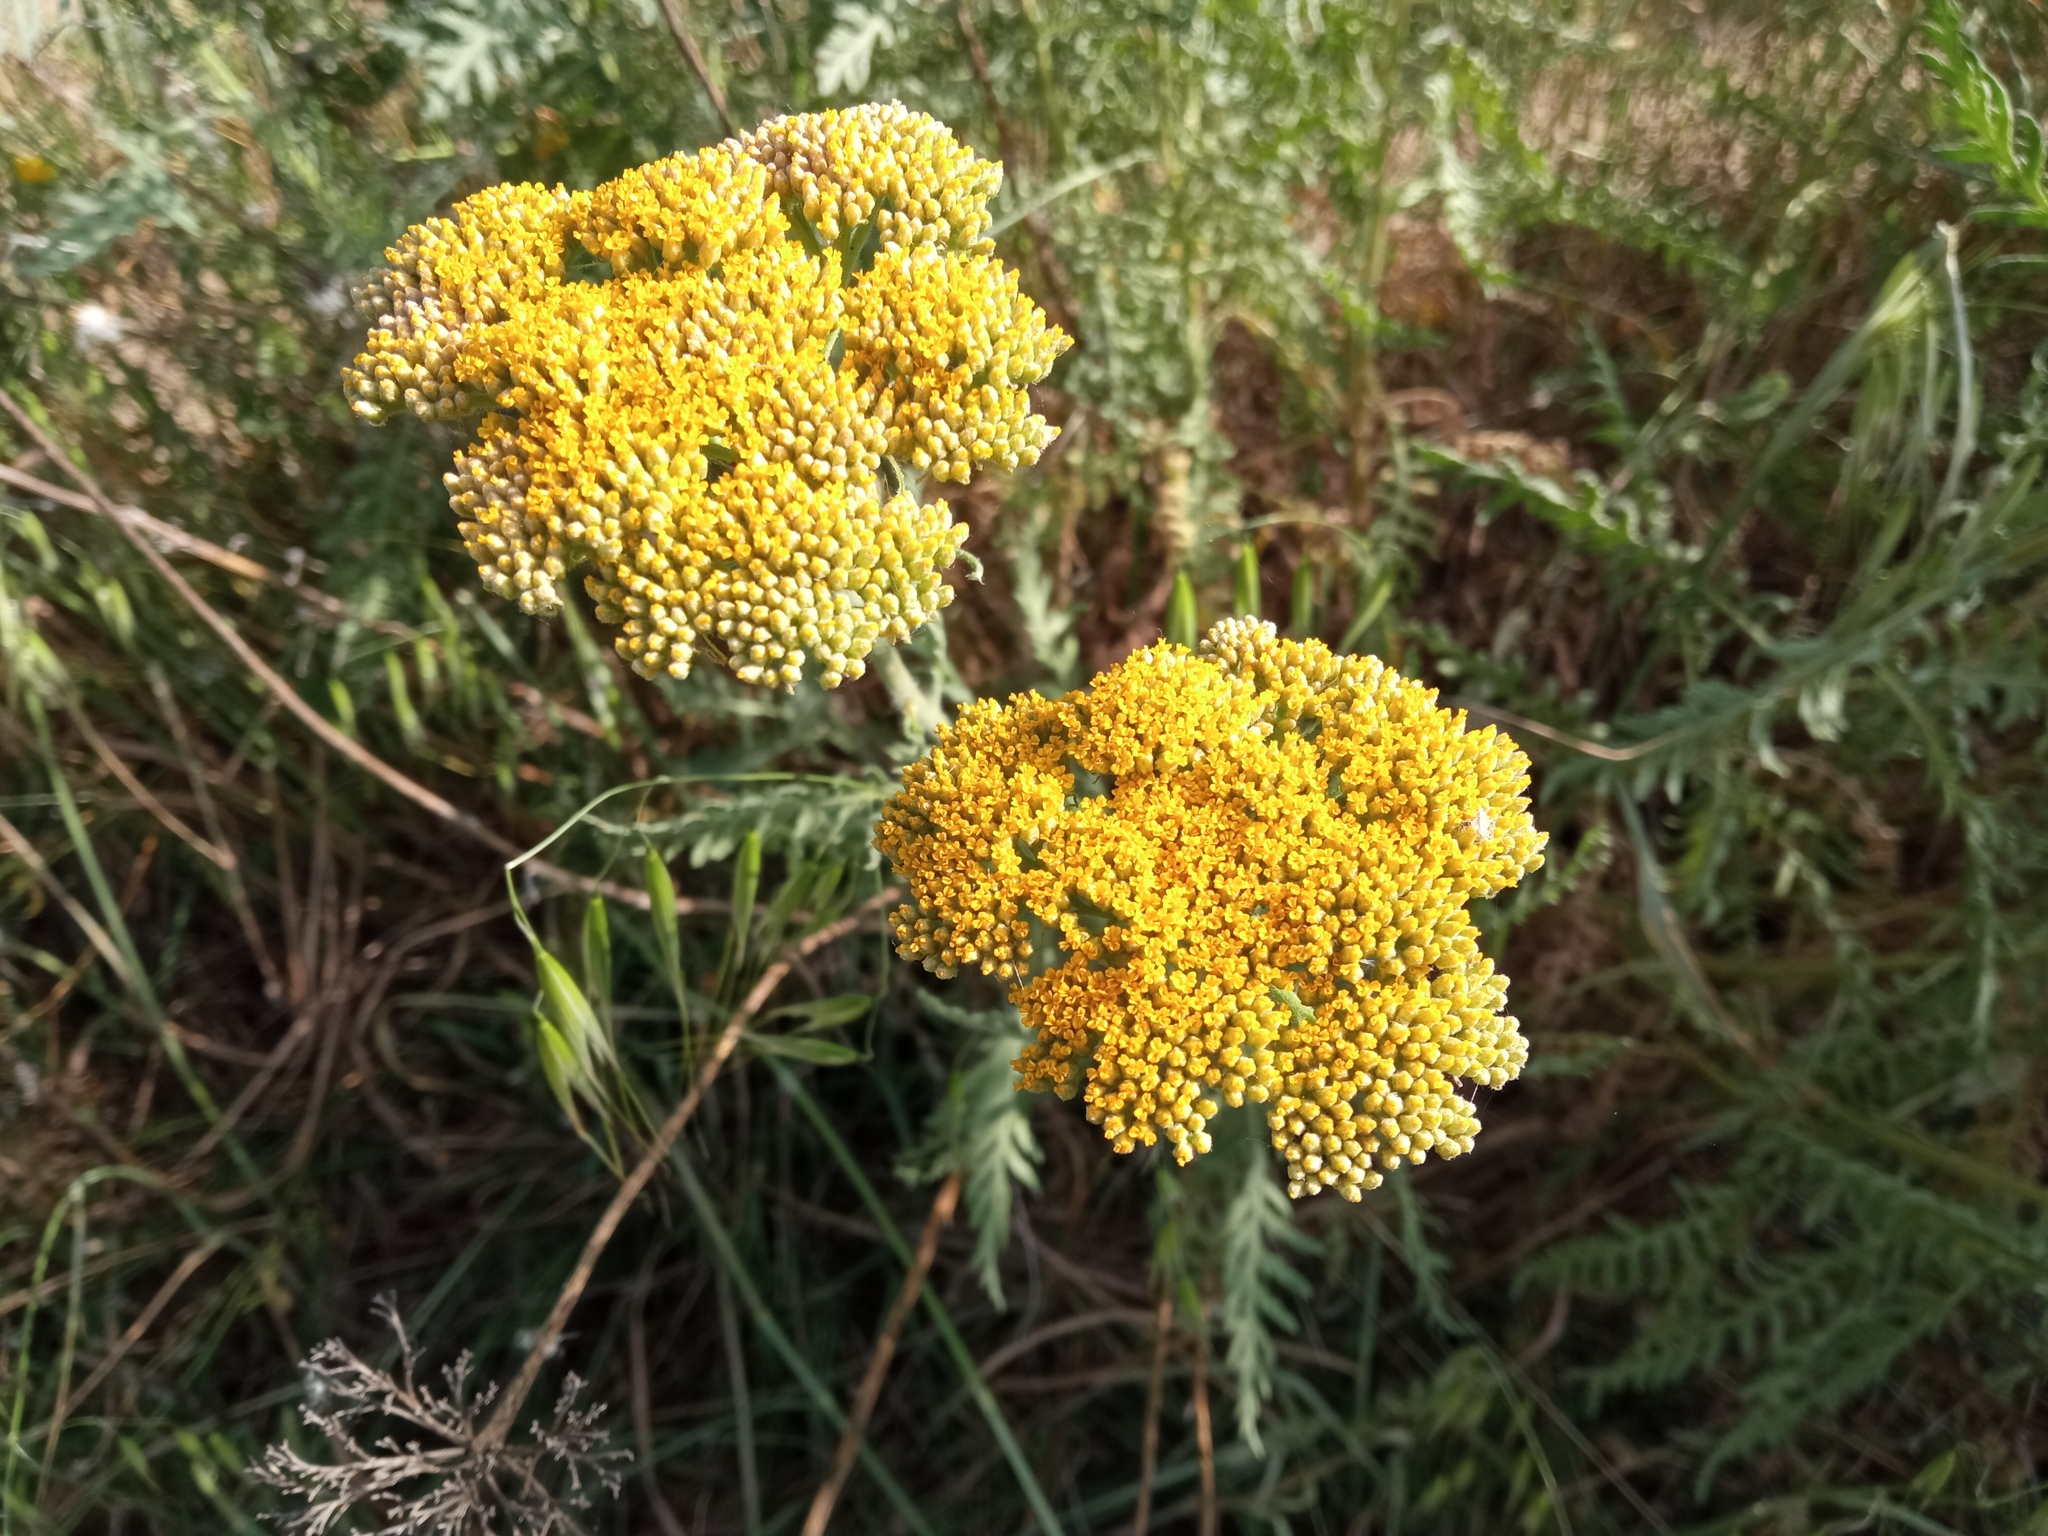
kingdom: Plantae
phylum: Tracheophyta
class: Magnoliopsida
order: Asterales
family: Asteraceae
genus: Achillea
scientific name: Achillea filipendulina
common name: Fernleaf yarrow
